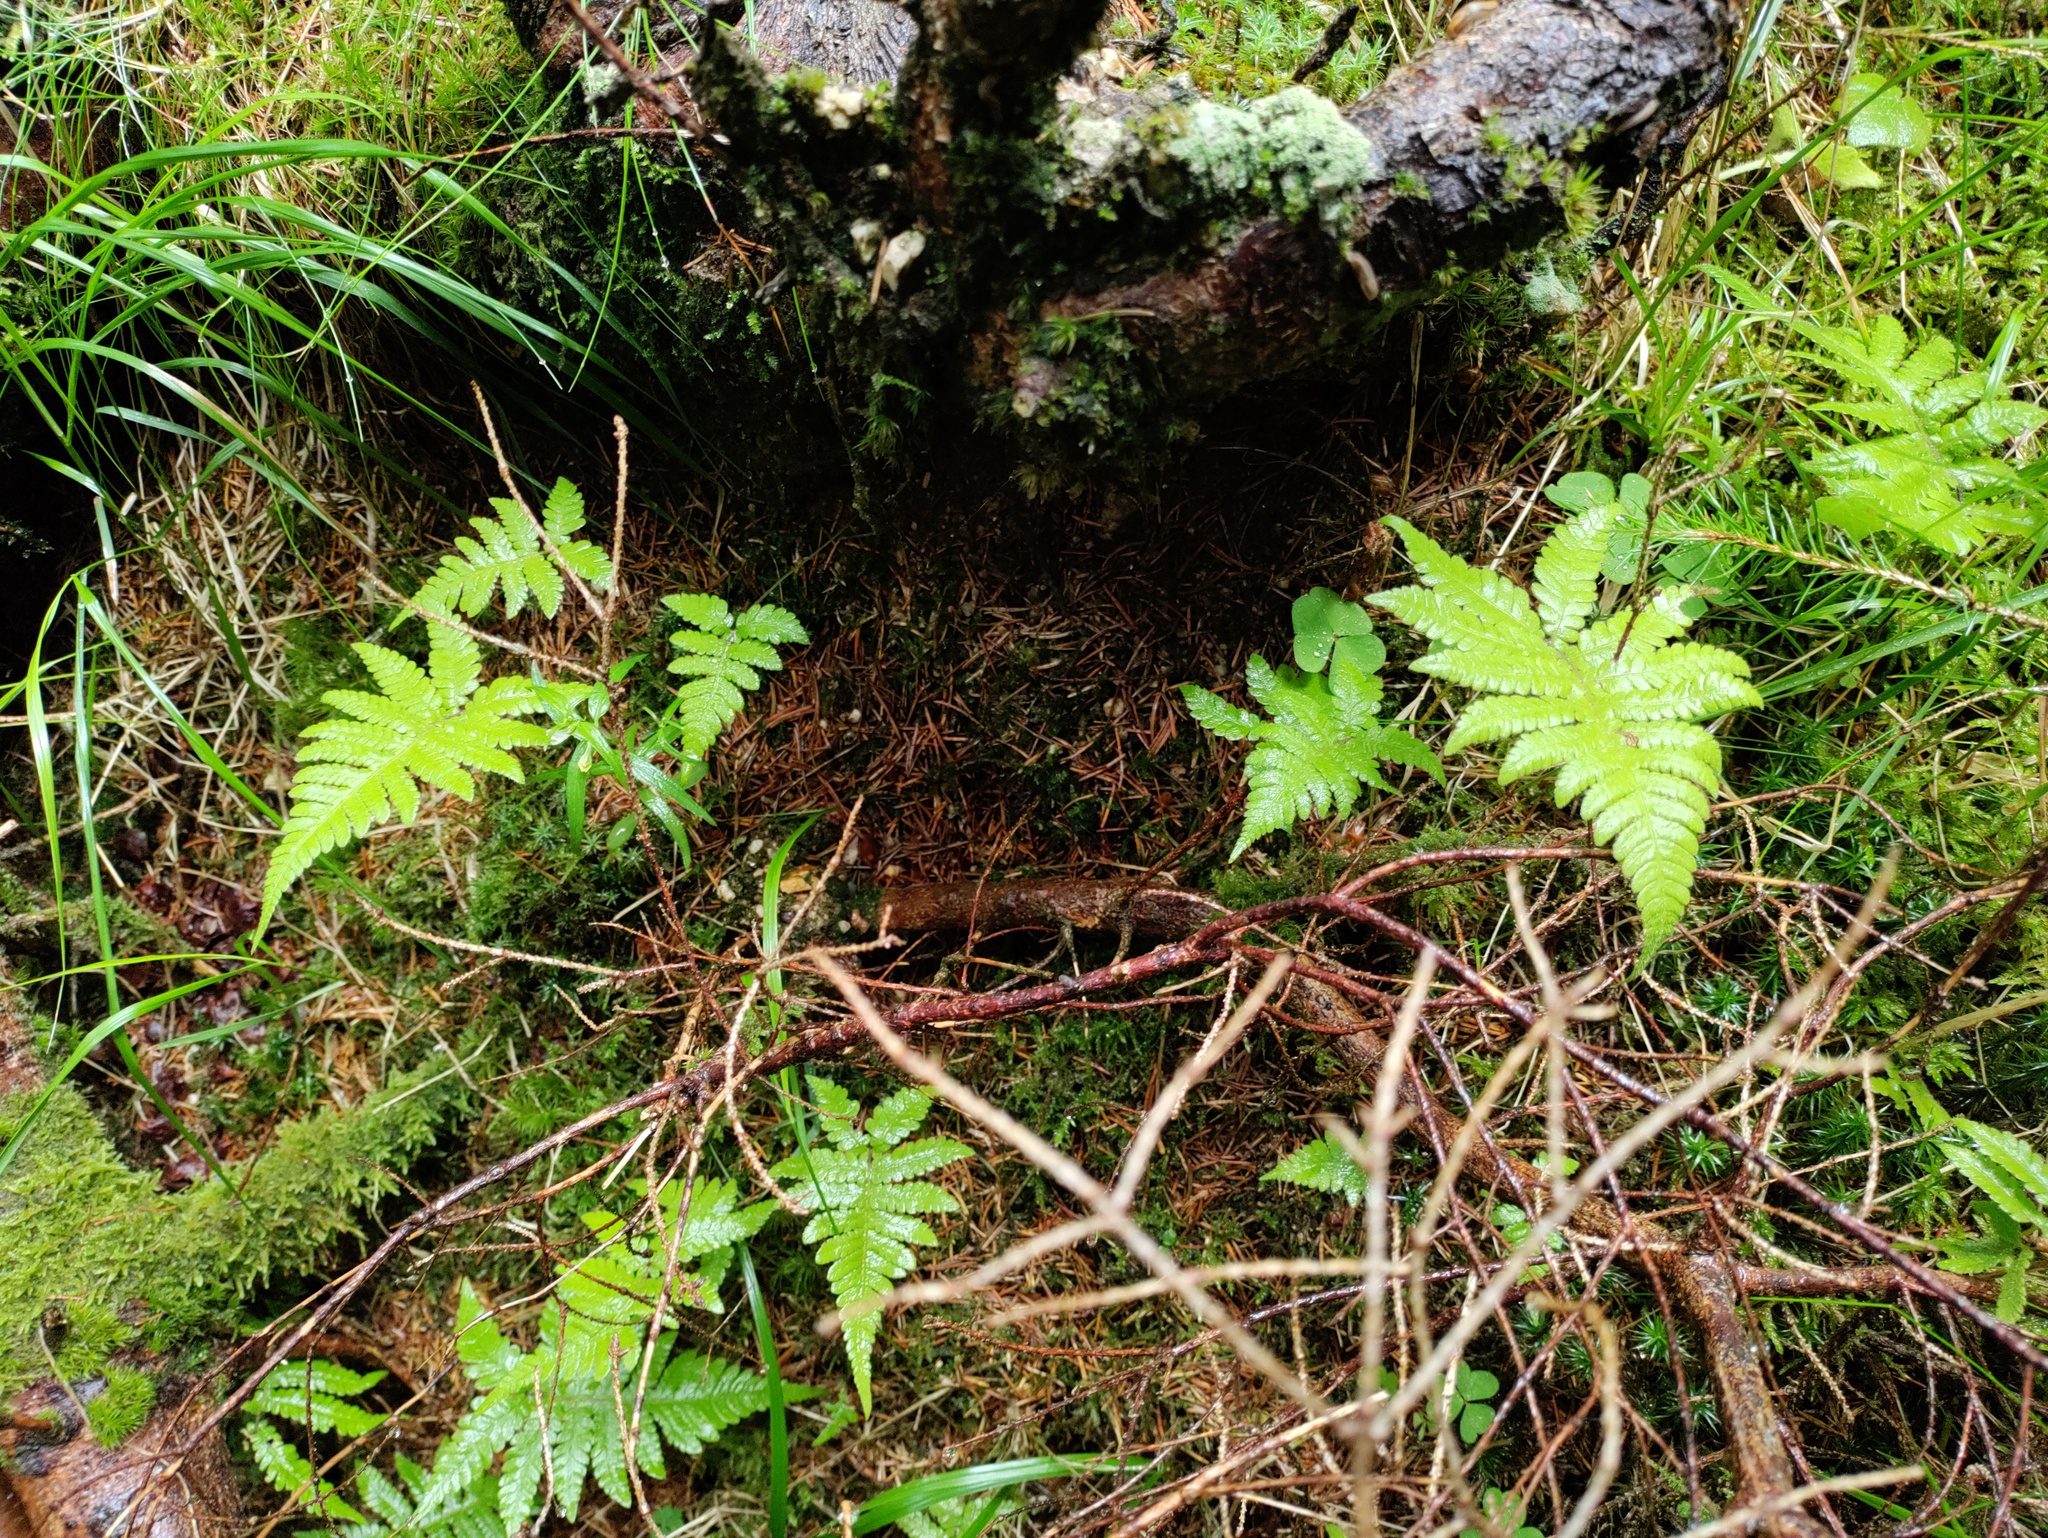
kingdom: Plantae
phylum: Tracheophyta
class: Polypodiopsida
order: Polypodiales
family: Thelypteridaceae
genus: Phegopteris
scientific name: Phegopteris connectilis
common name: Beech fern
